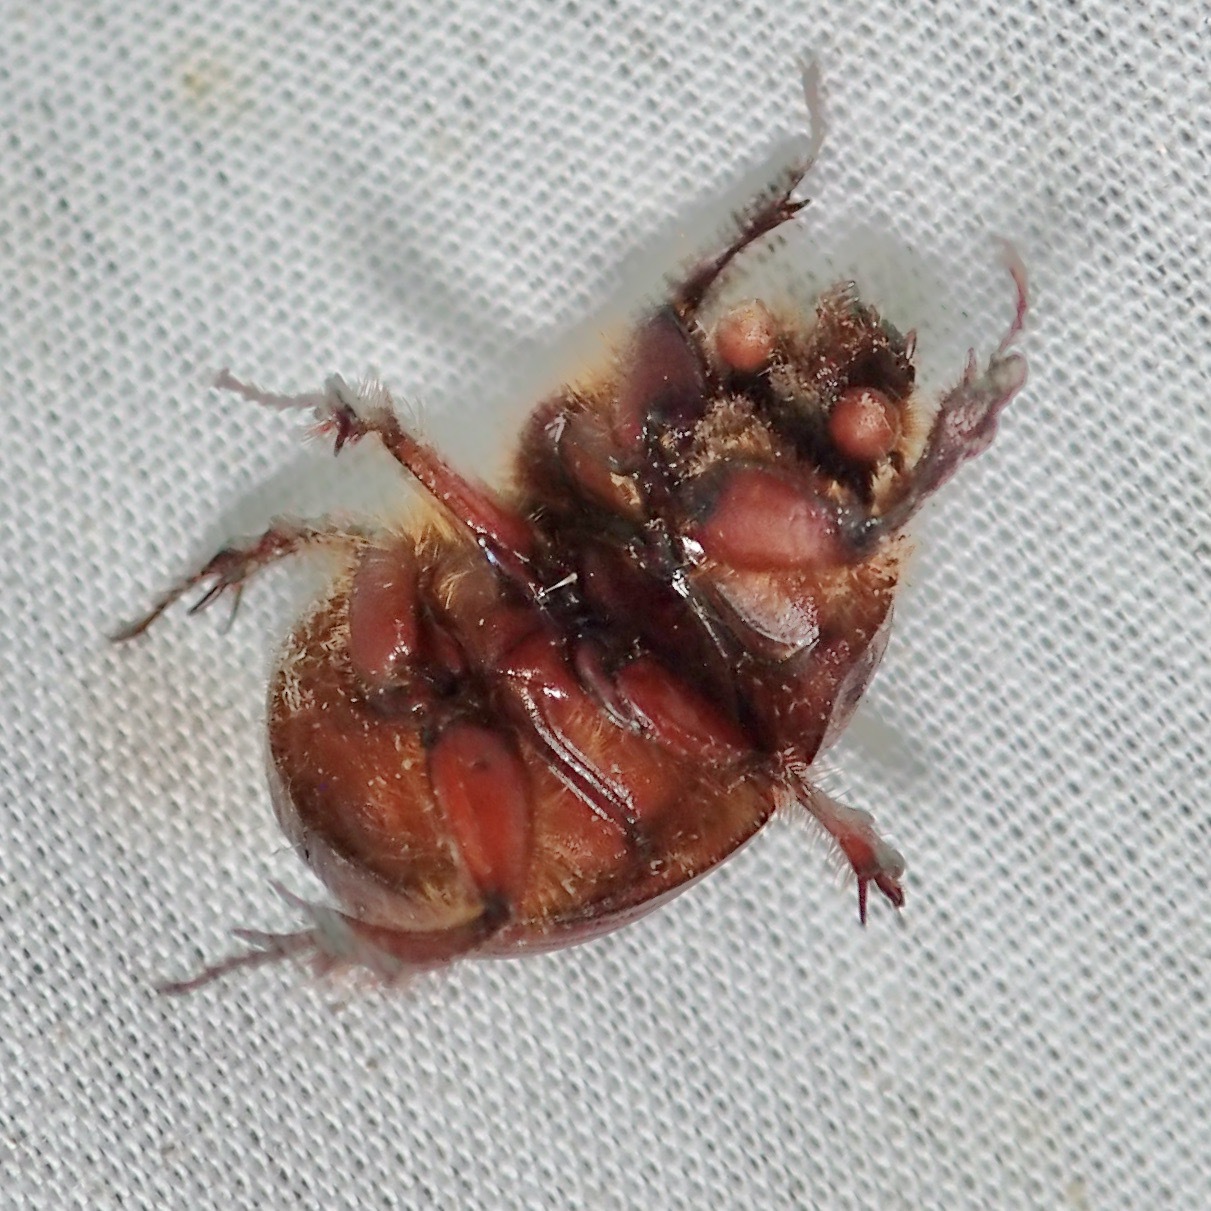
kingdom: Animalia
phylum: Arthropoda
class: Insecta
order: Coleoptera
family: Geotrupidae
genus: Bolborhombus
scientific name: Bolborhombus sallaei
